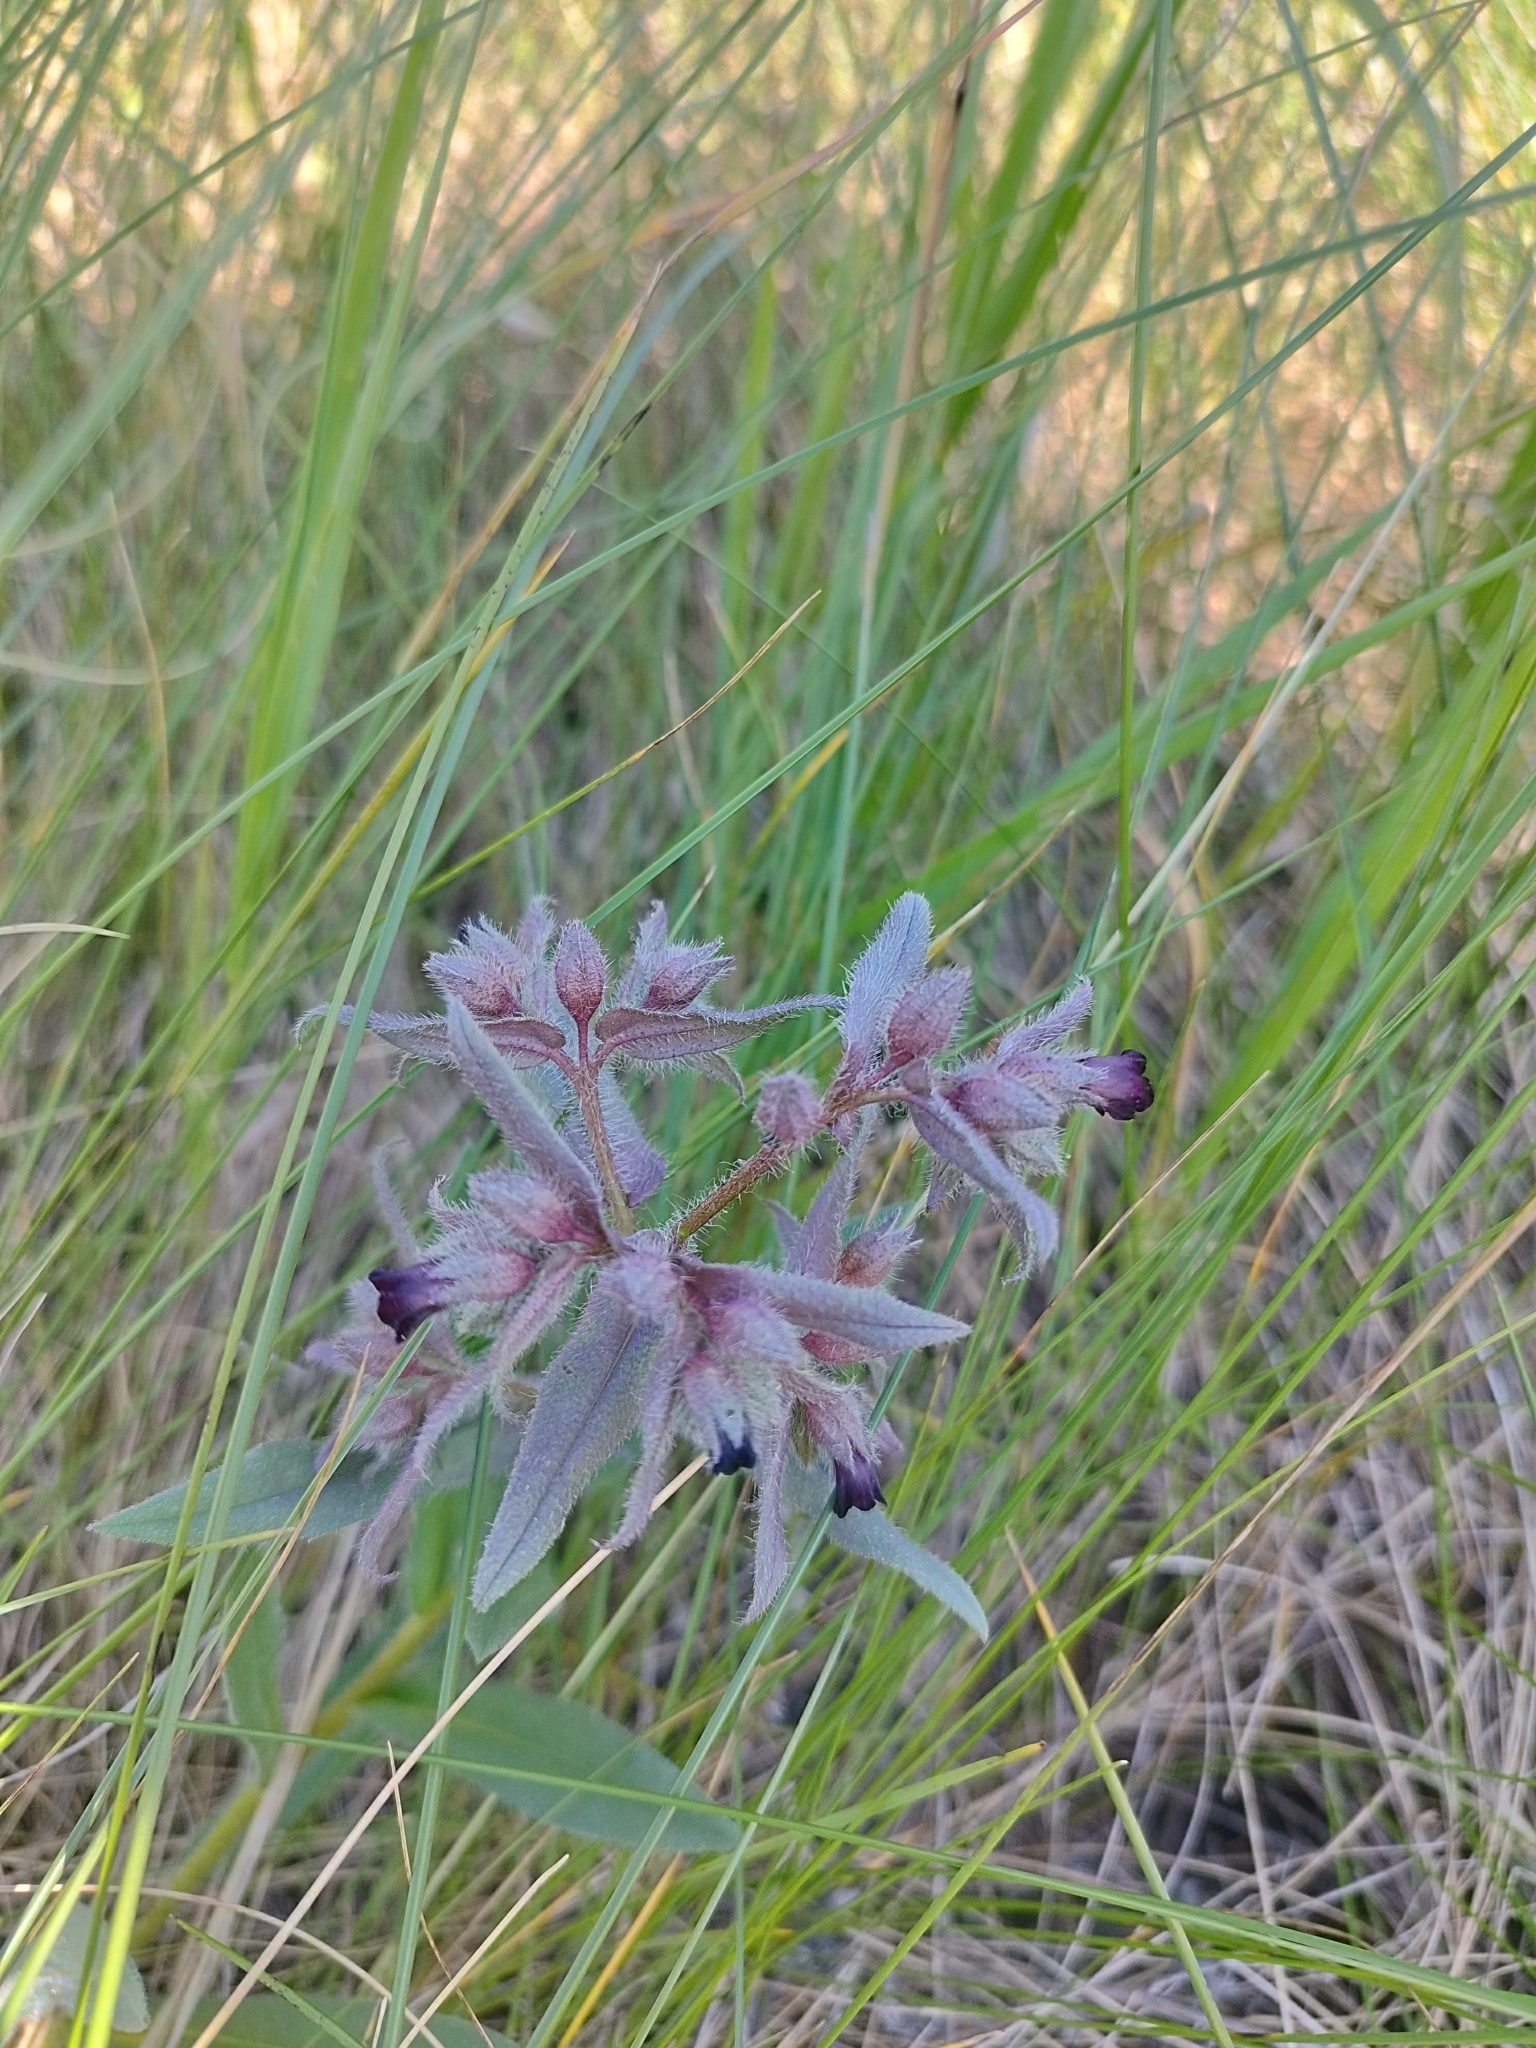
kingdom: Plantae
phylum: Tracheophyta
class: Magnoliopsida
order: Boraginales
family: Boraginaceae
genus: Nonea
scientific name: Nonea pulla
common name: Brown nonea
